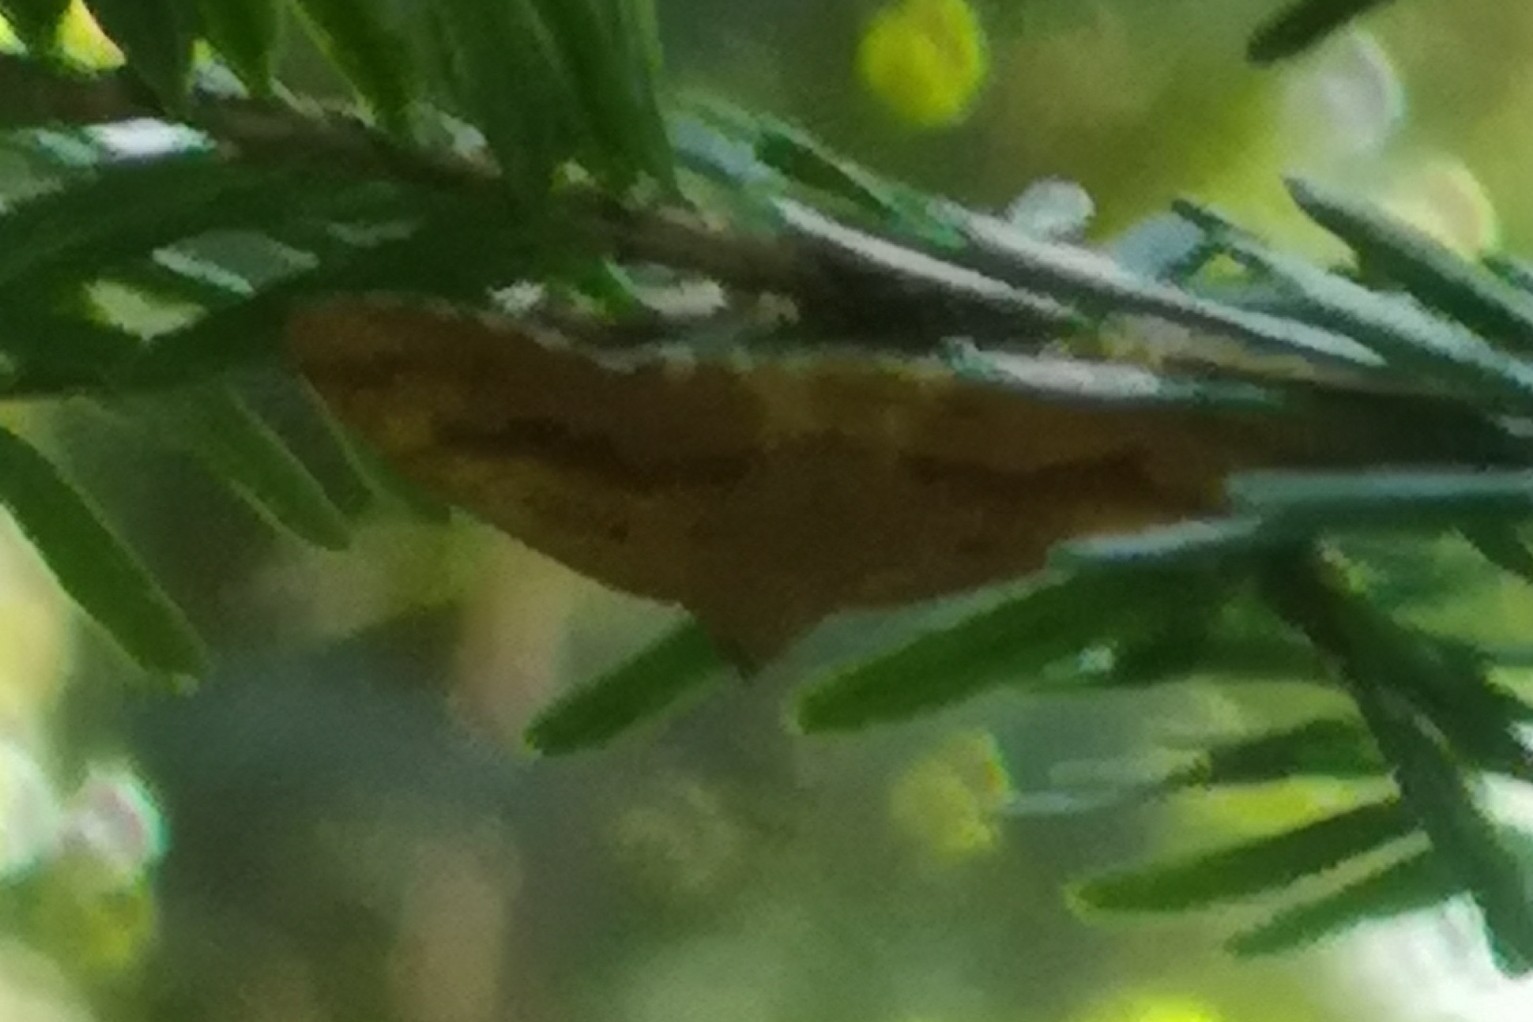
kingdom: Animalia
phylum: Arthropoda
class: Insecta
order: Lepidoptera
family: Geometridae
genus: Camptogramma
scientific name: Camptogramma bilineata
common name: Yellow shell
